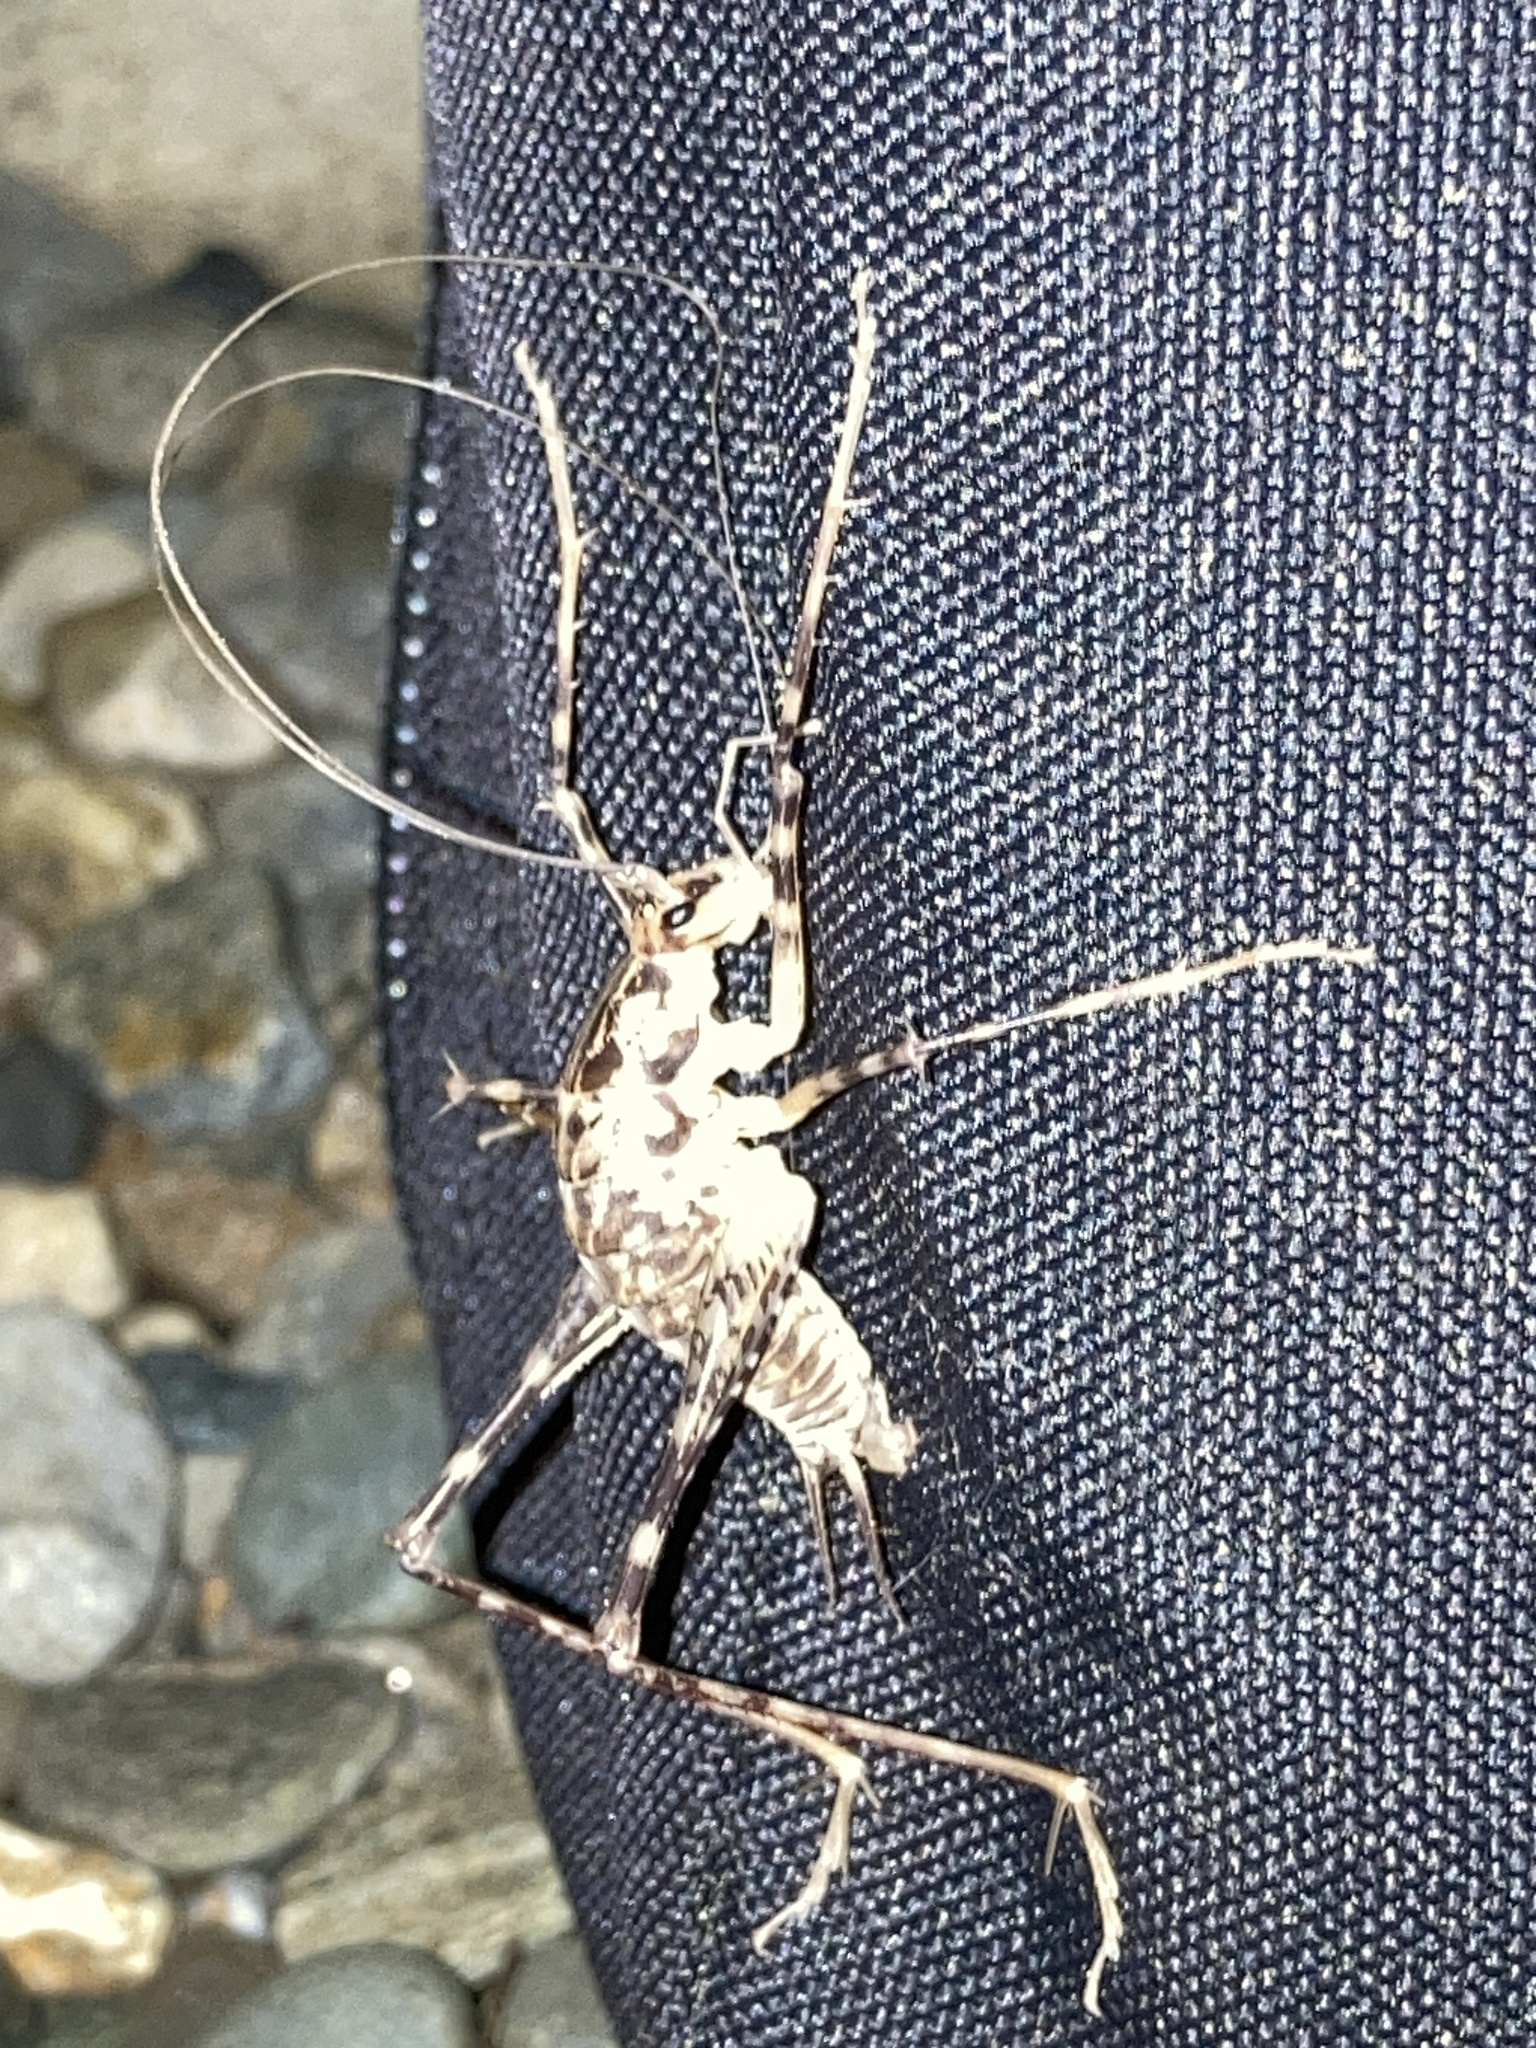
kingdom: Animalia
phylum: Arthropoda
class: Insecta
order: Orthoptera
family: Rhaphidophoridae
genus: Diestrammena
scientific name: Diestrammena japanica
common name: Japanese camel cricket
